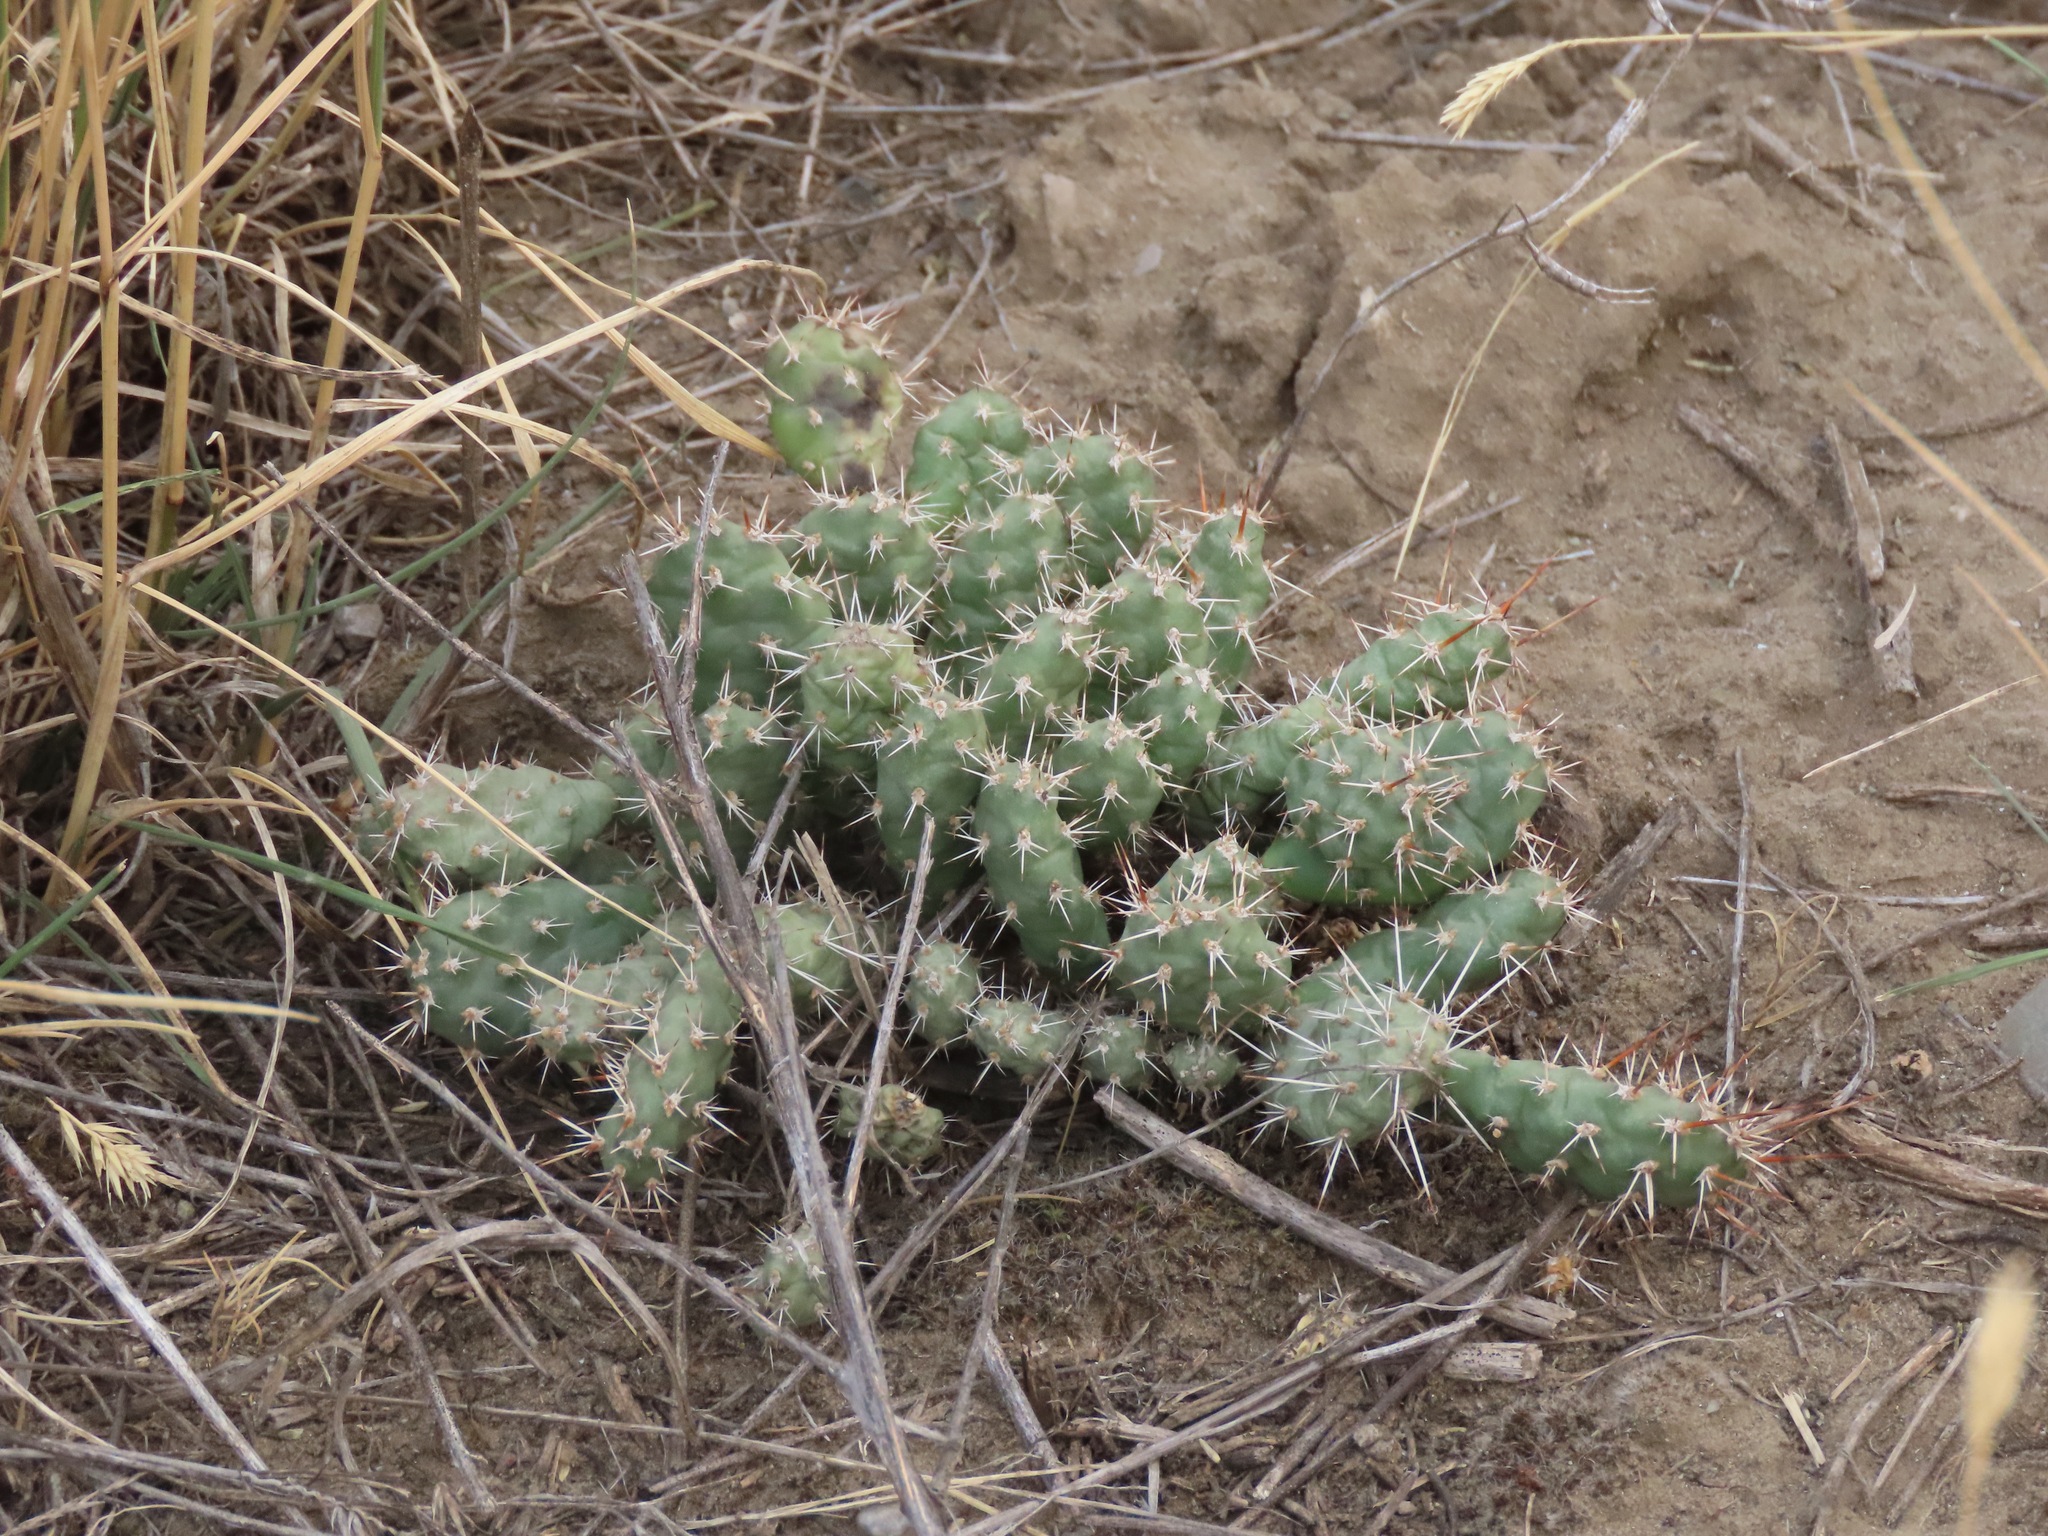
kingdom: Plantae
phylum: Tracheophyta
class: Magnoliopsida
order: Caryophyllales
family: Cactaceae
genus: Opuntia
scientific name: Opuntia fragilis
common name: Brittle cactus
